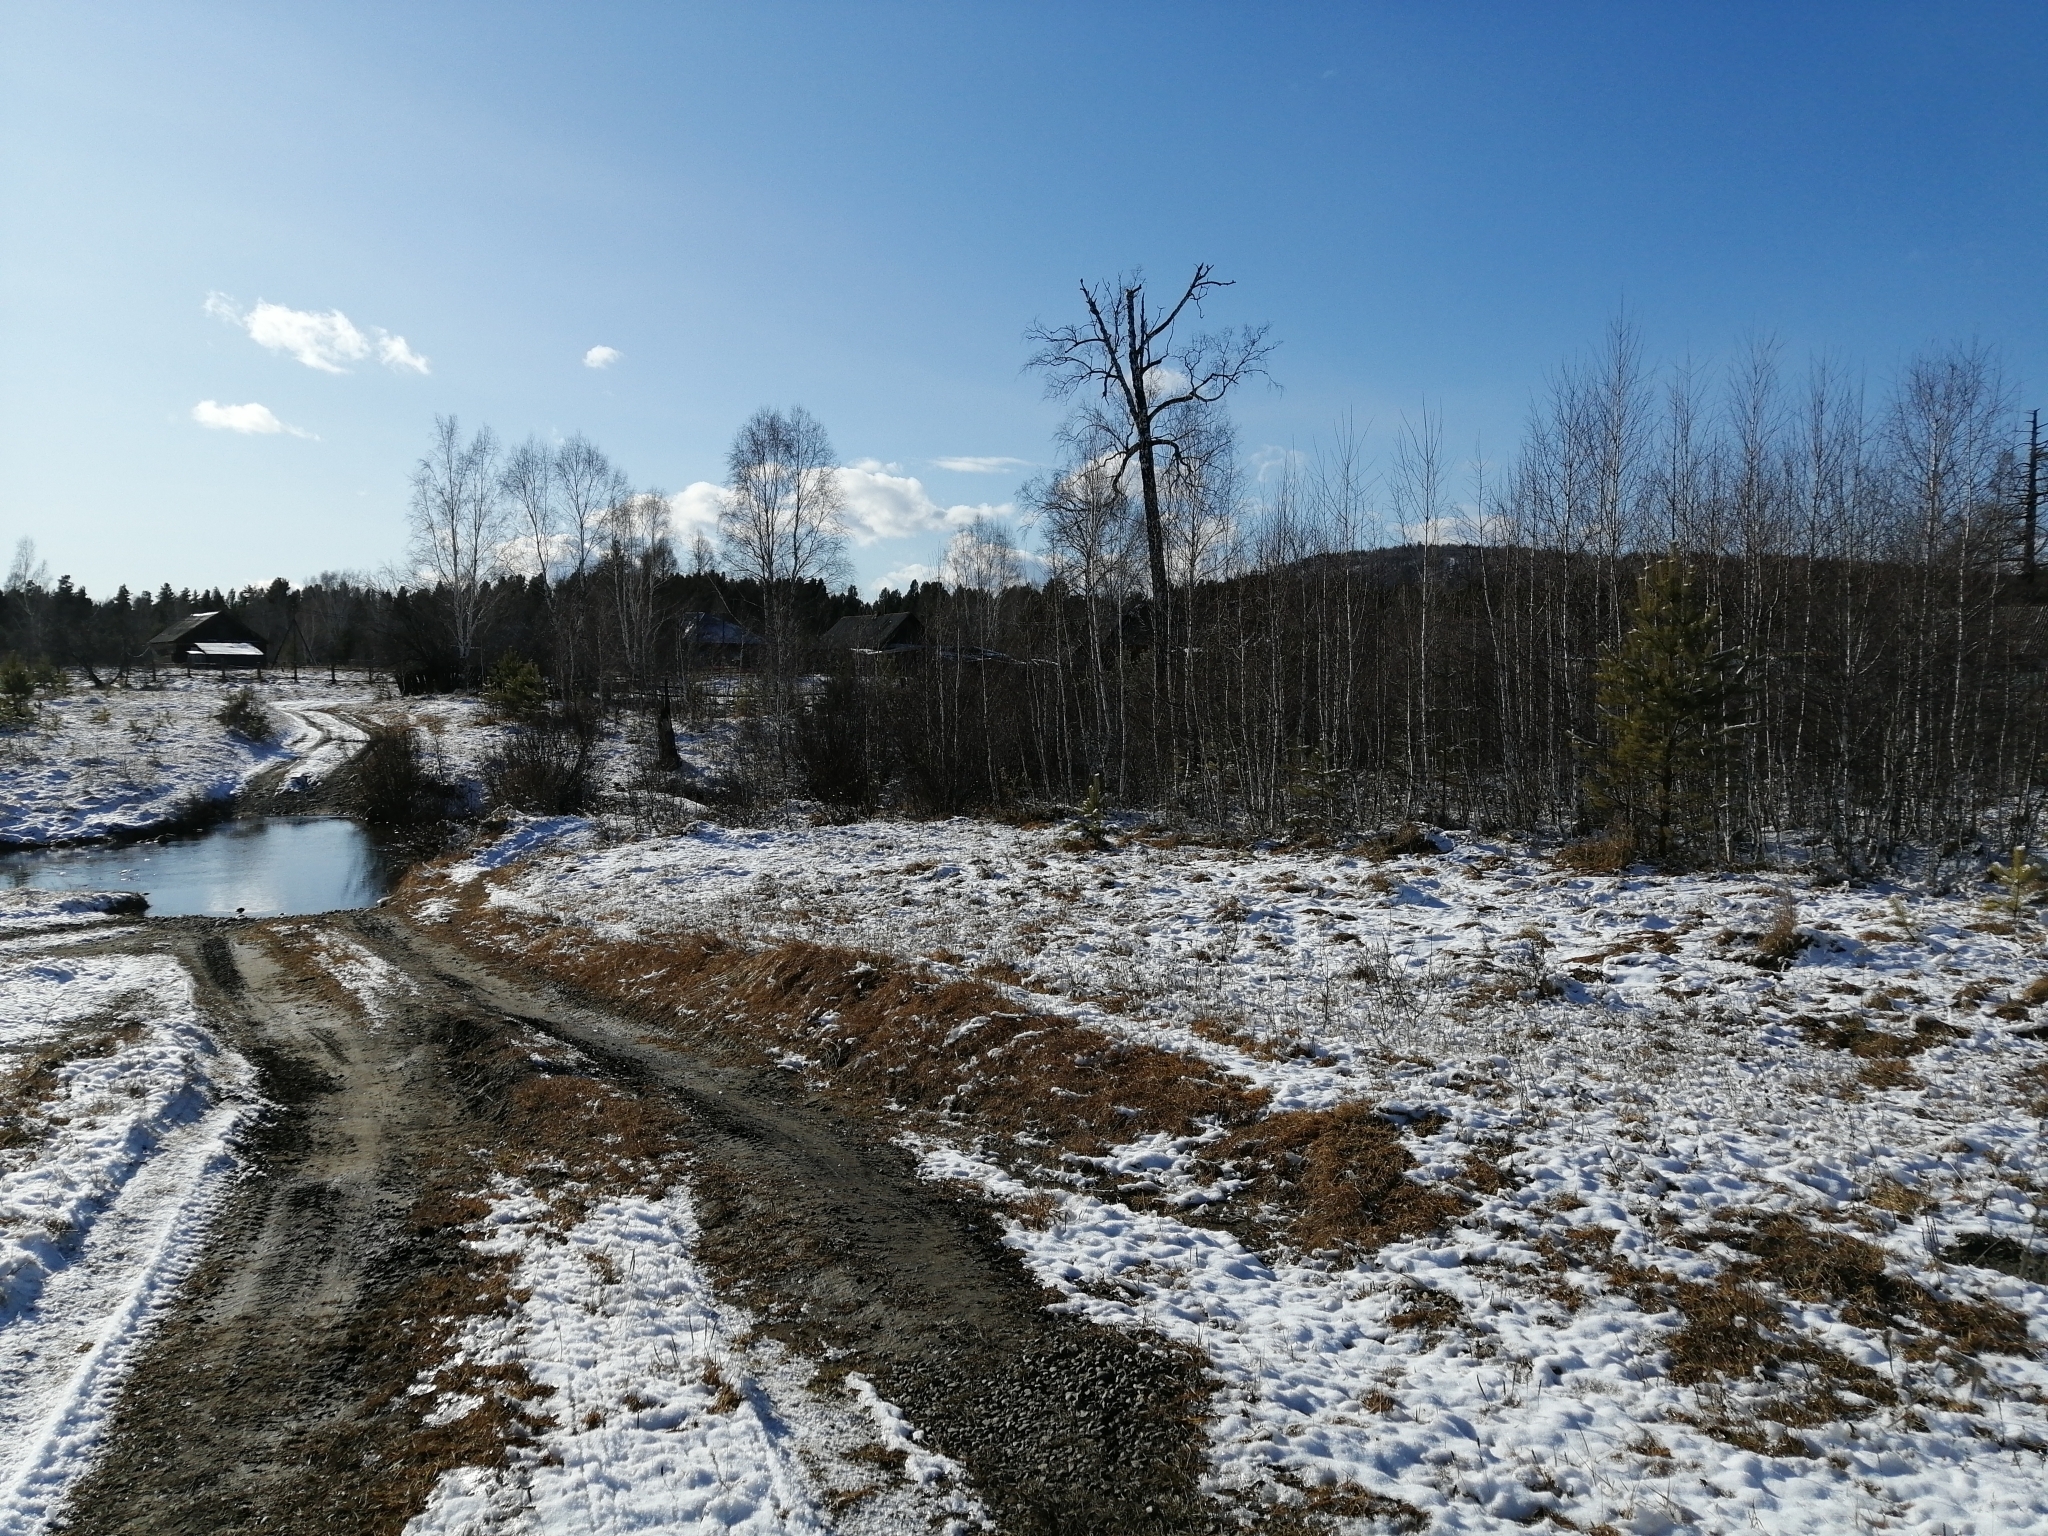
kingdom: Plantae
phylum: Tracheophyta
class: Pinopsida
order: Pinales
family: Pinaceae
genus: Pinus
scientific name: Pinus sylvestris
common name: Scots pine
